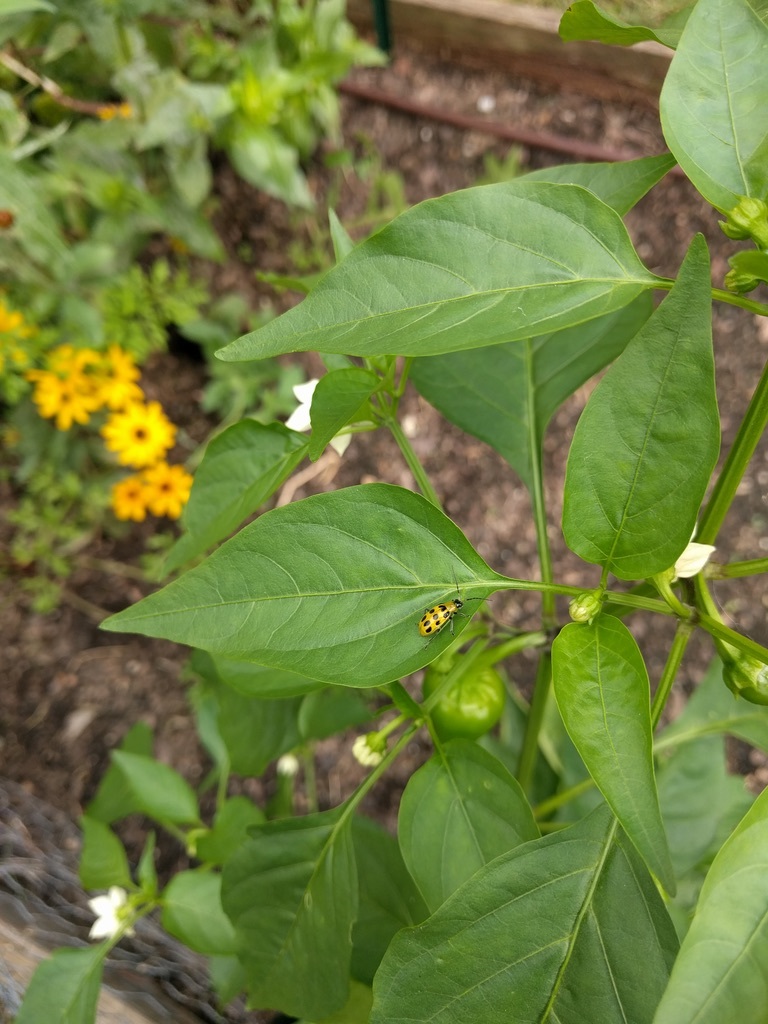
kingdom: Animalia
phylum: Arthropoda
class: Insecta
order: Coleoptera
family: Chrysomelidae
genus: Diabrotica
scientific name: Diabrotica undecimpunctata
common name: Spotted cucumber beetle
